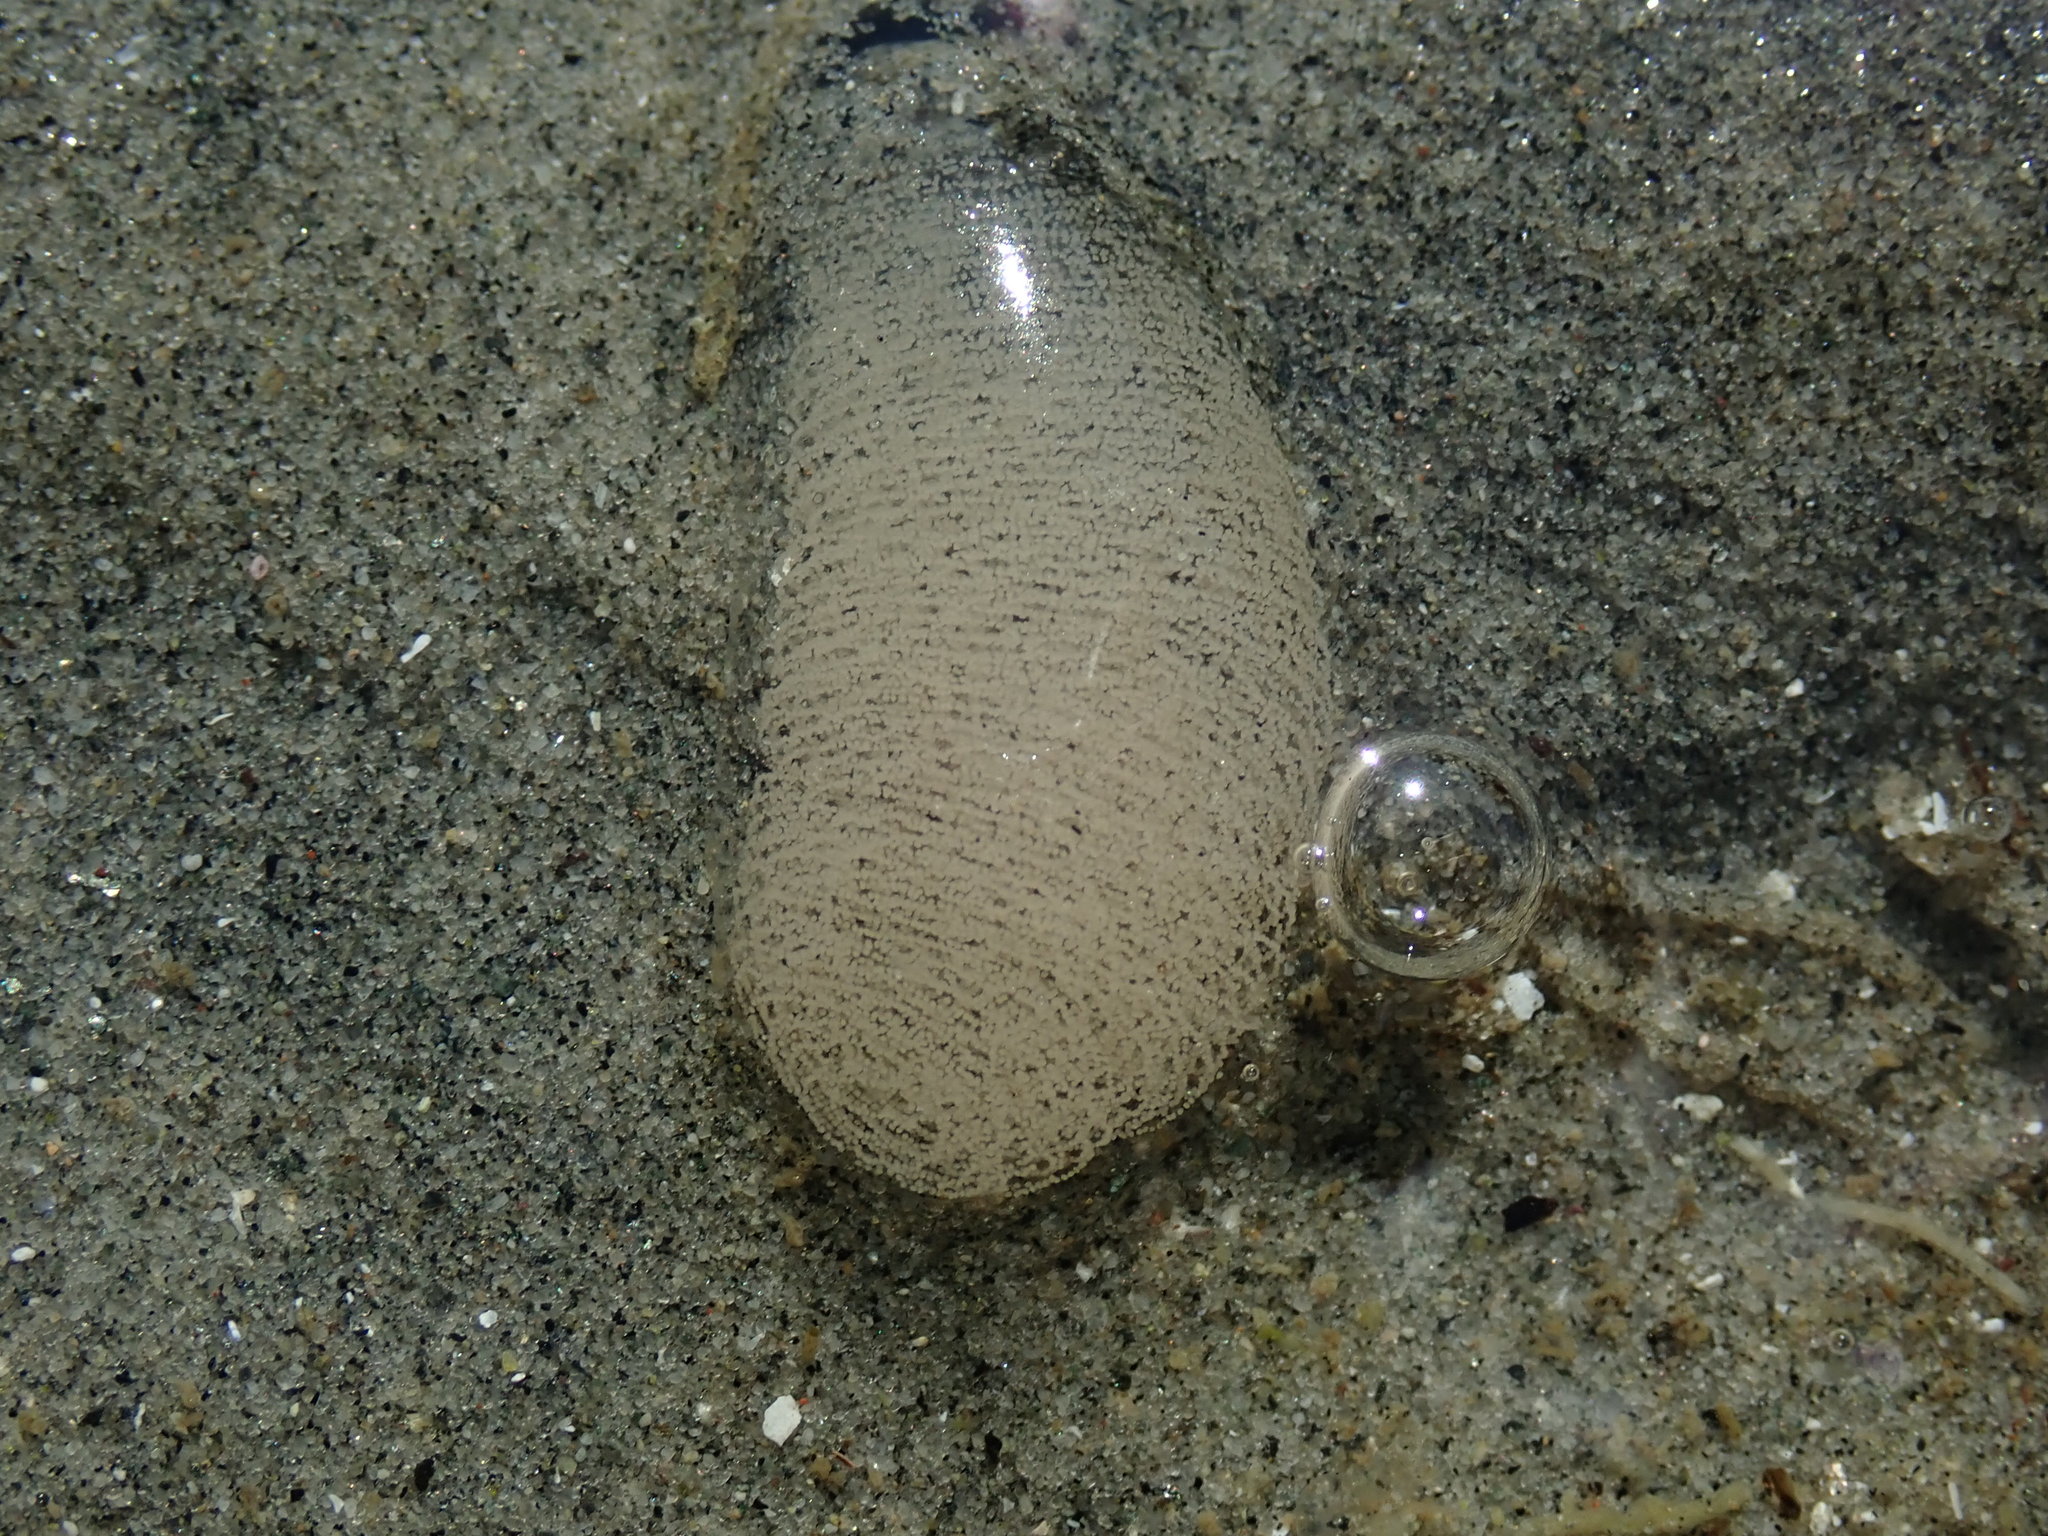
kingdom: Animalia
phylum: Mollusca
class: Gastropoda
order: Cephalaspidea
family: Aglajidae
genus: Melanochlamys
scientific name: Melanochlamys diomedea
